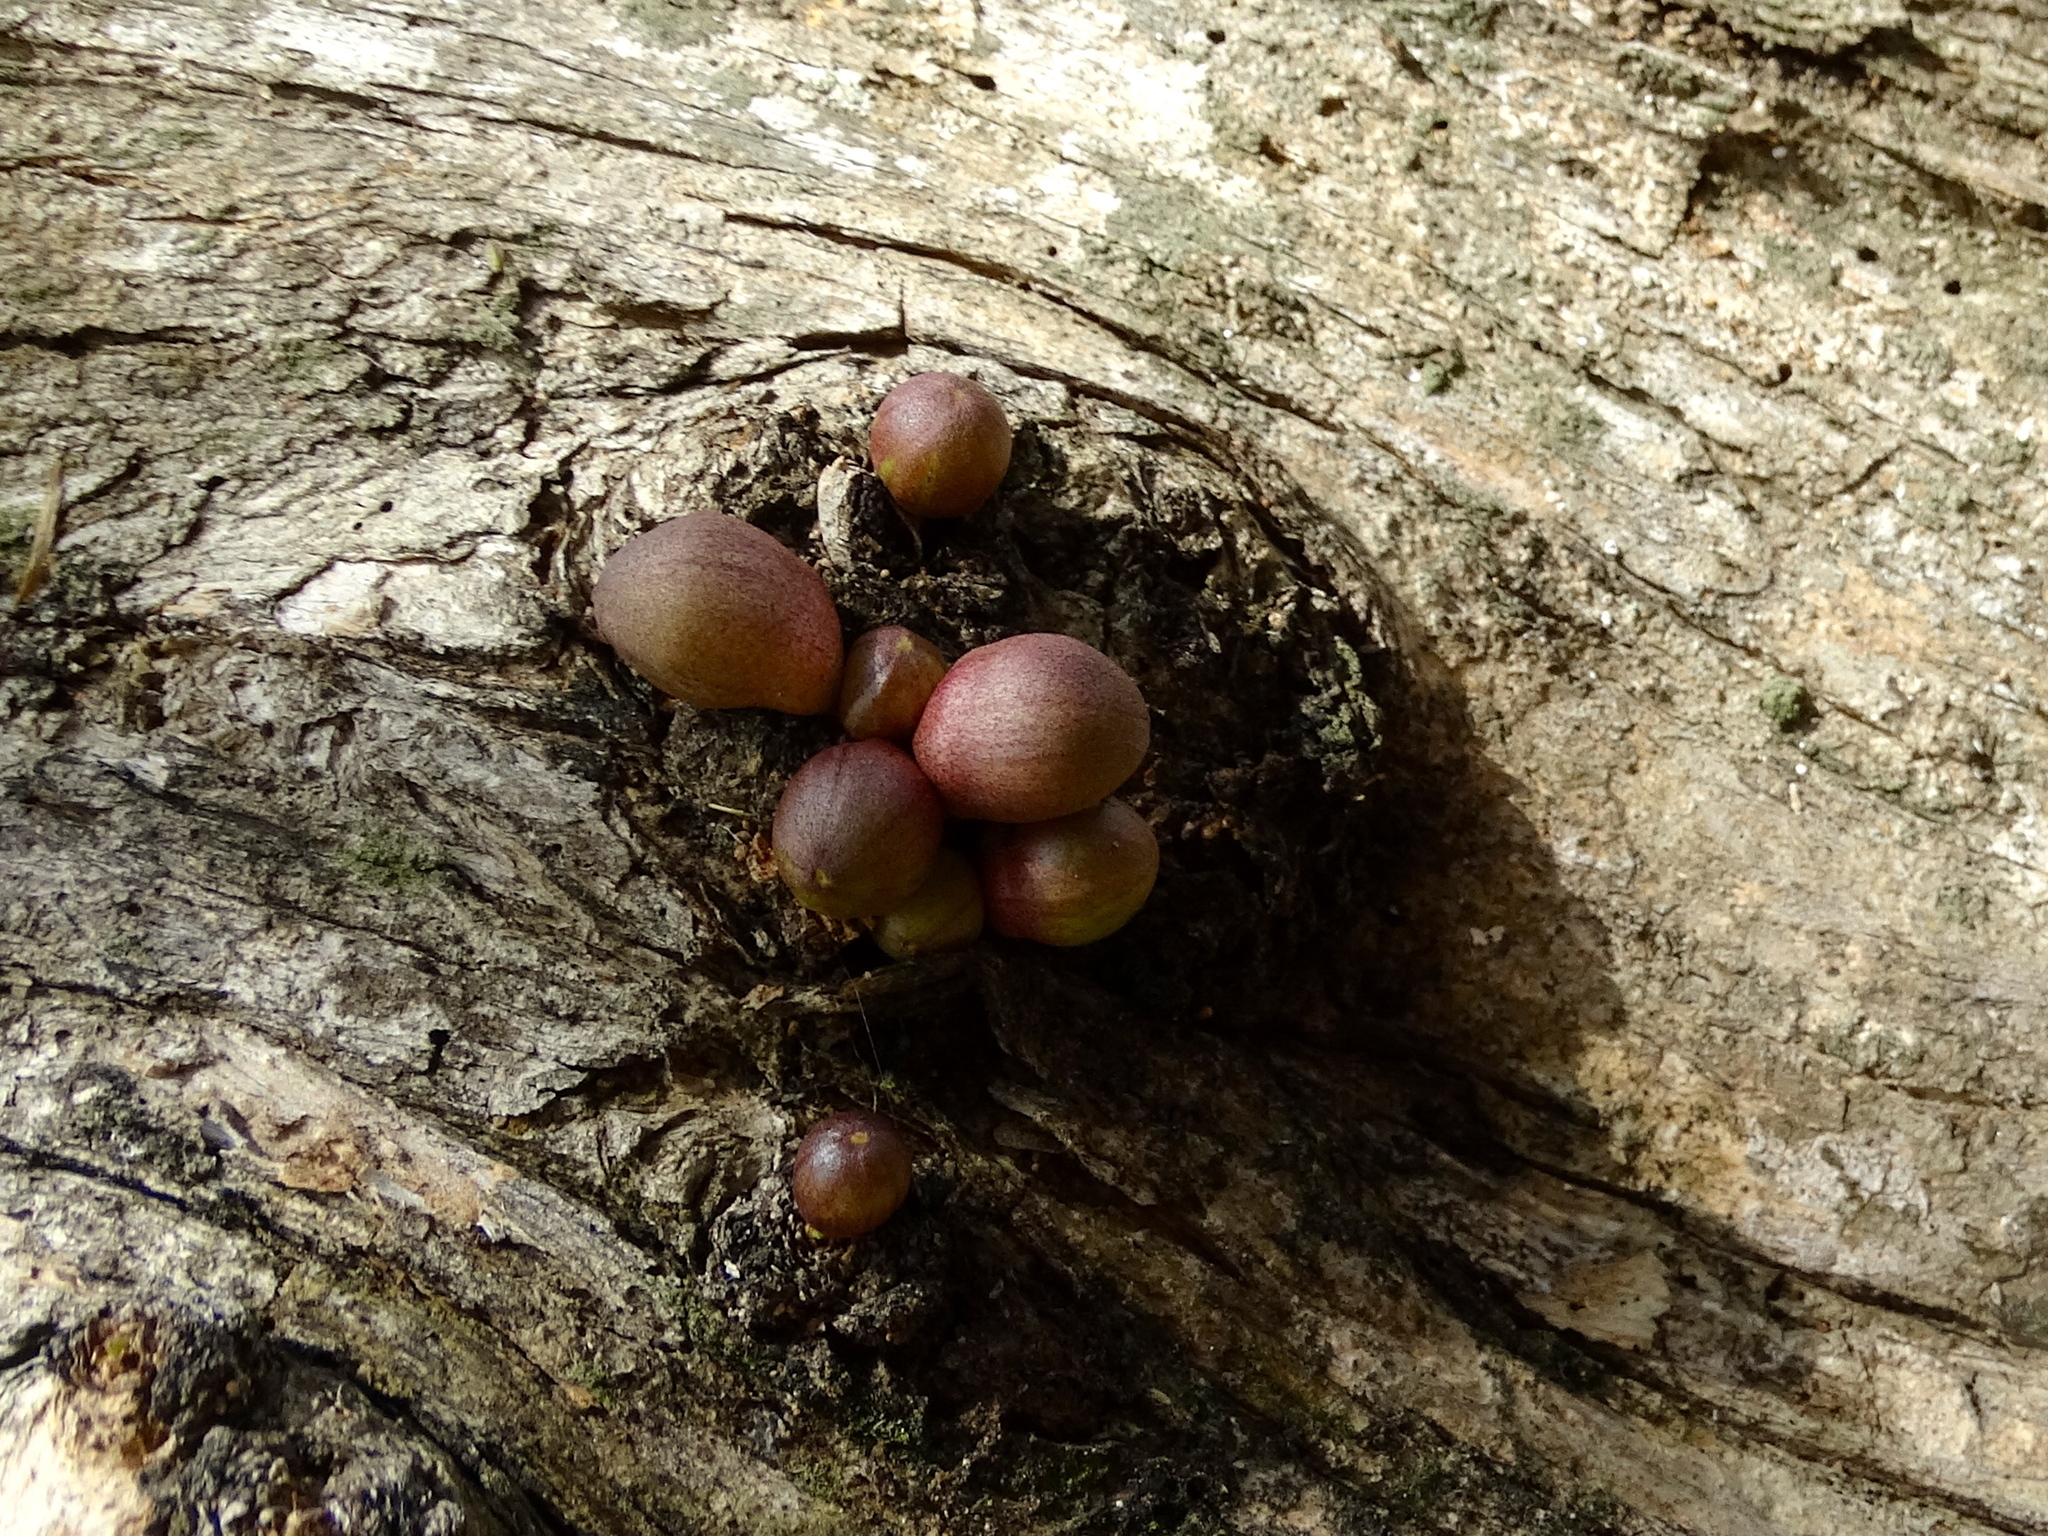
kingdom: Plantae
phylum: Tracheophyta
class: Magnoliopsida
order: Lamiales
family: Bignoniaceae
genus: Crescentia
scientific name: Crescentia alata
